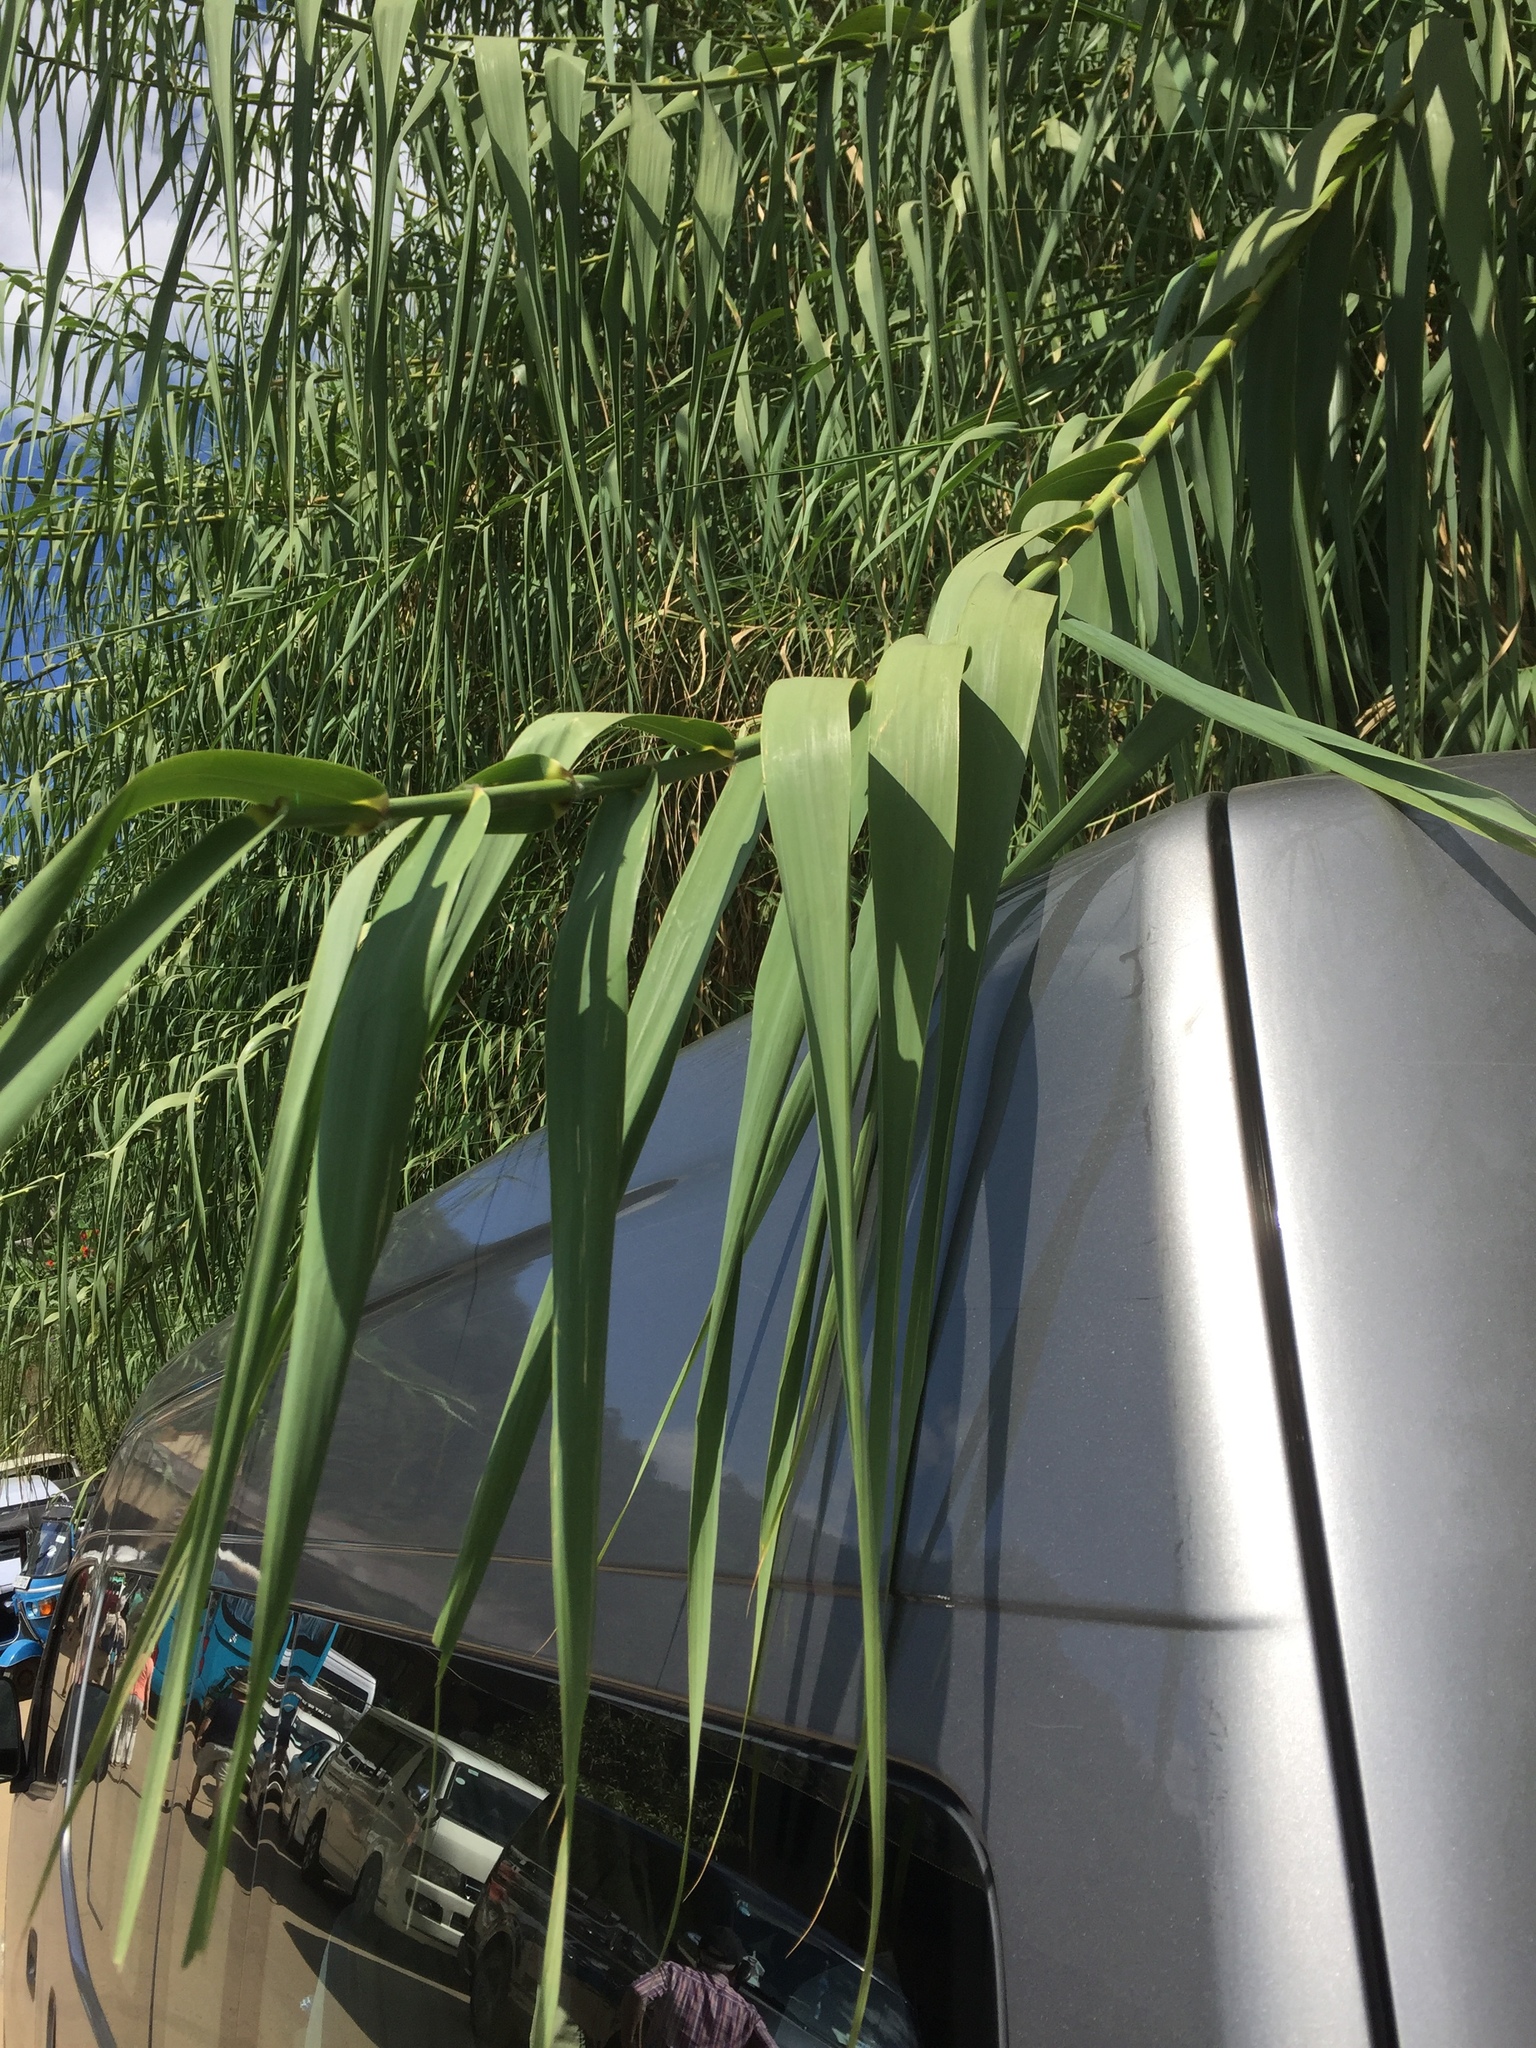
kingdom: Plantae
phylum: Tracheophyta
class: Liliopsida
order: Poales
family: Poaceae
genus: Arundo
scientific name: Arundo donax
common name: Giant reed
